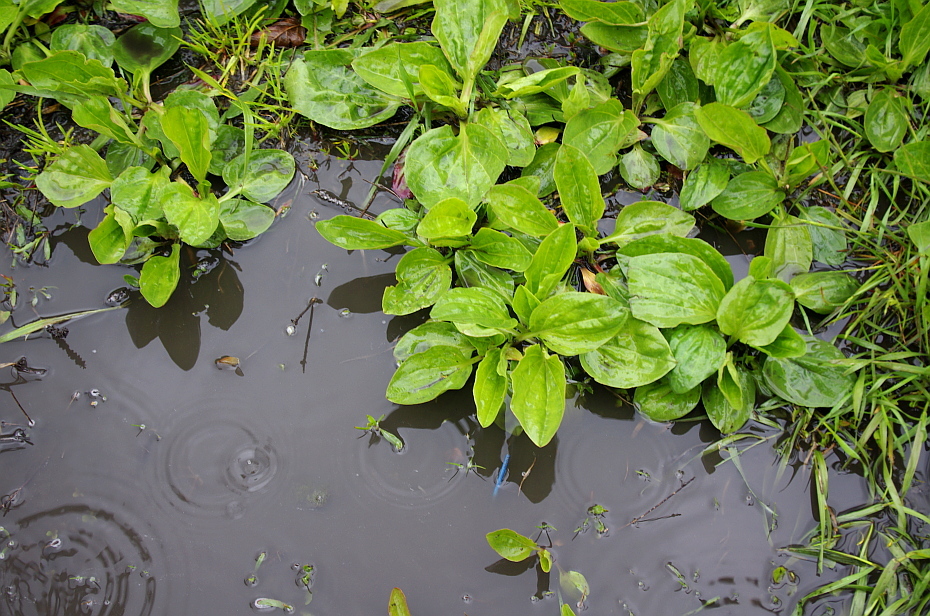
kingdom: Plantae
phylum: Tracheophyta
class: Magnoliopsida
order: Lamiales
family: Plantaginaceae
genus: Plantago
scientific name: Plantago major
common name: Common plantain
